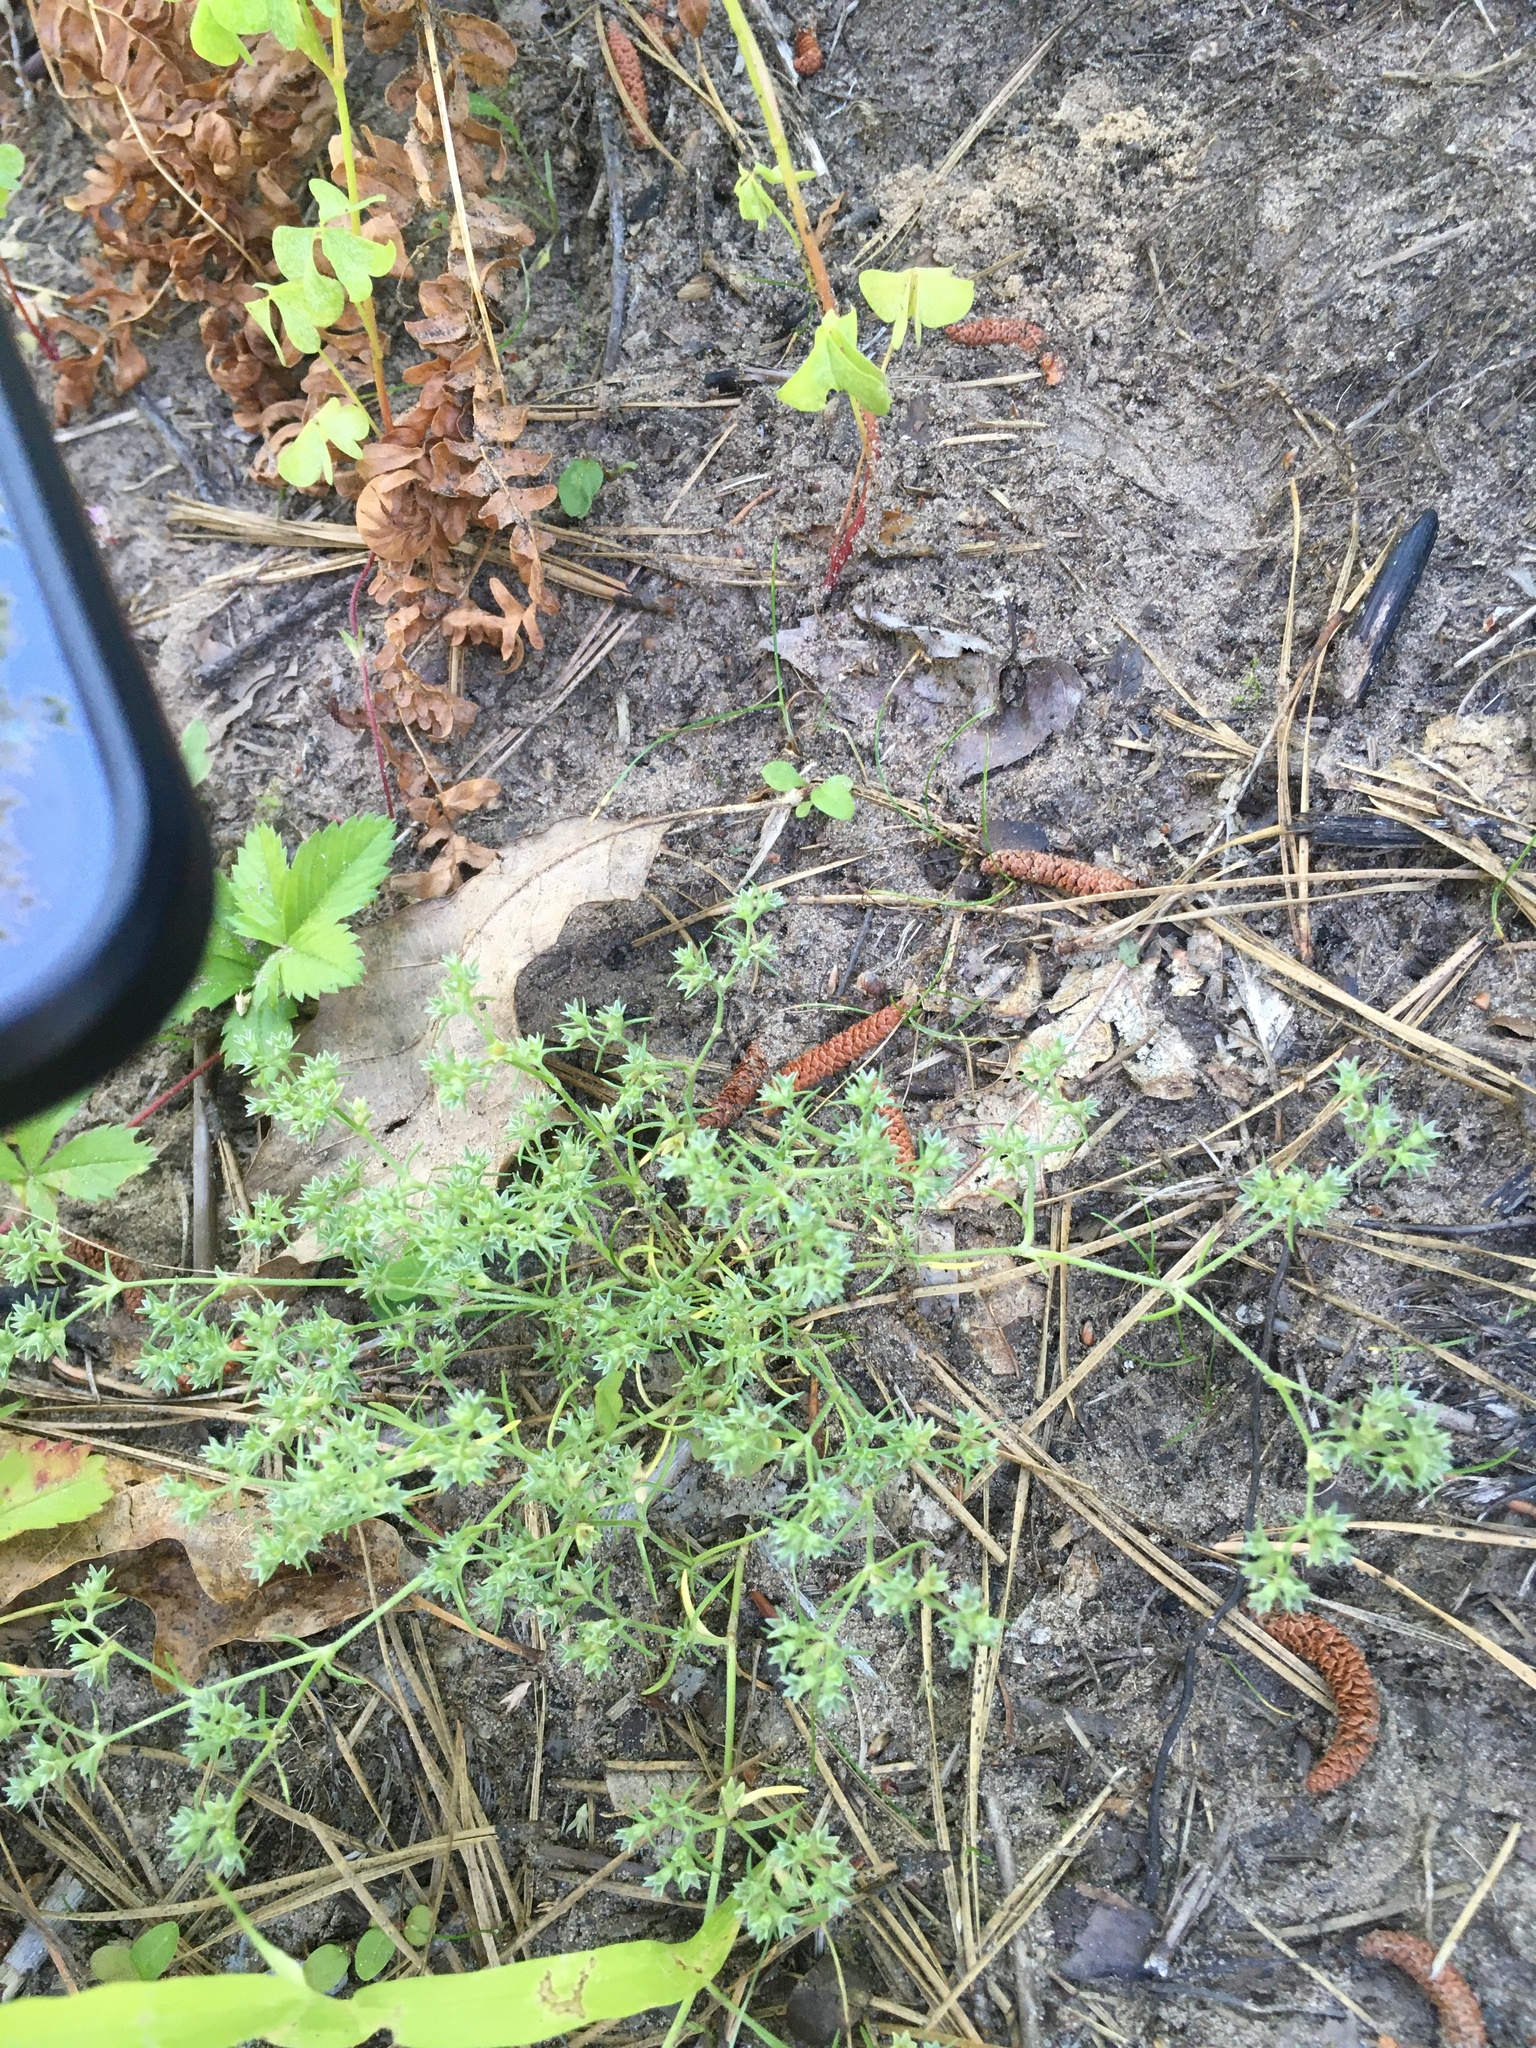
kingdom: Plantae
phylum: Tracheophyta
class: Magnoliopsida
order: Caryophyllales
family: Caryophyllaceae
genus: Scleranthus
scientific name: Scleranthus annuus
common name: Annual knawel
